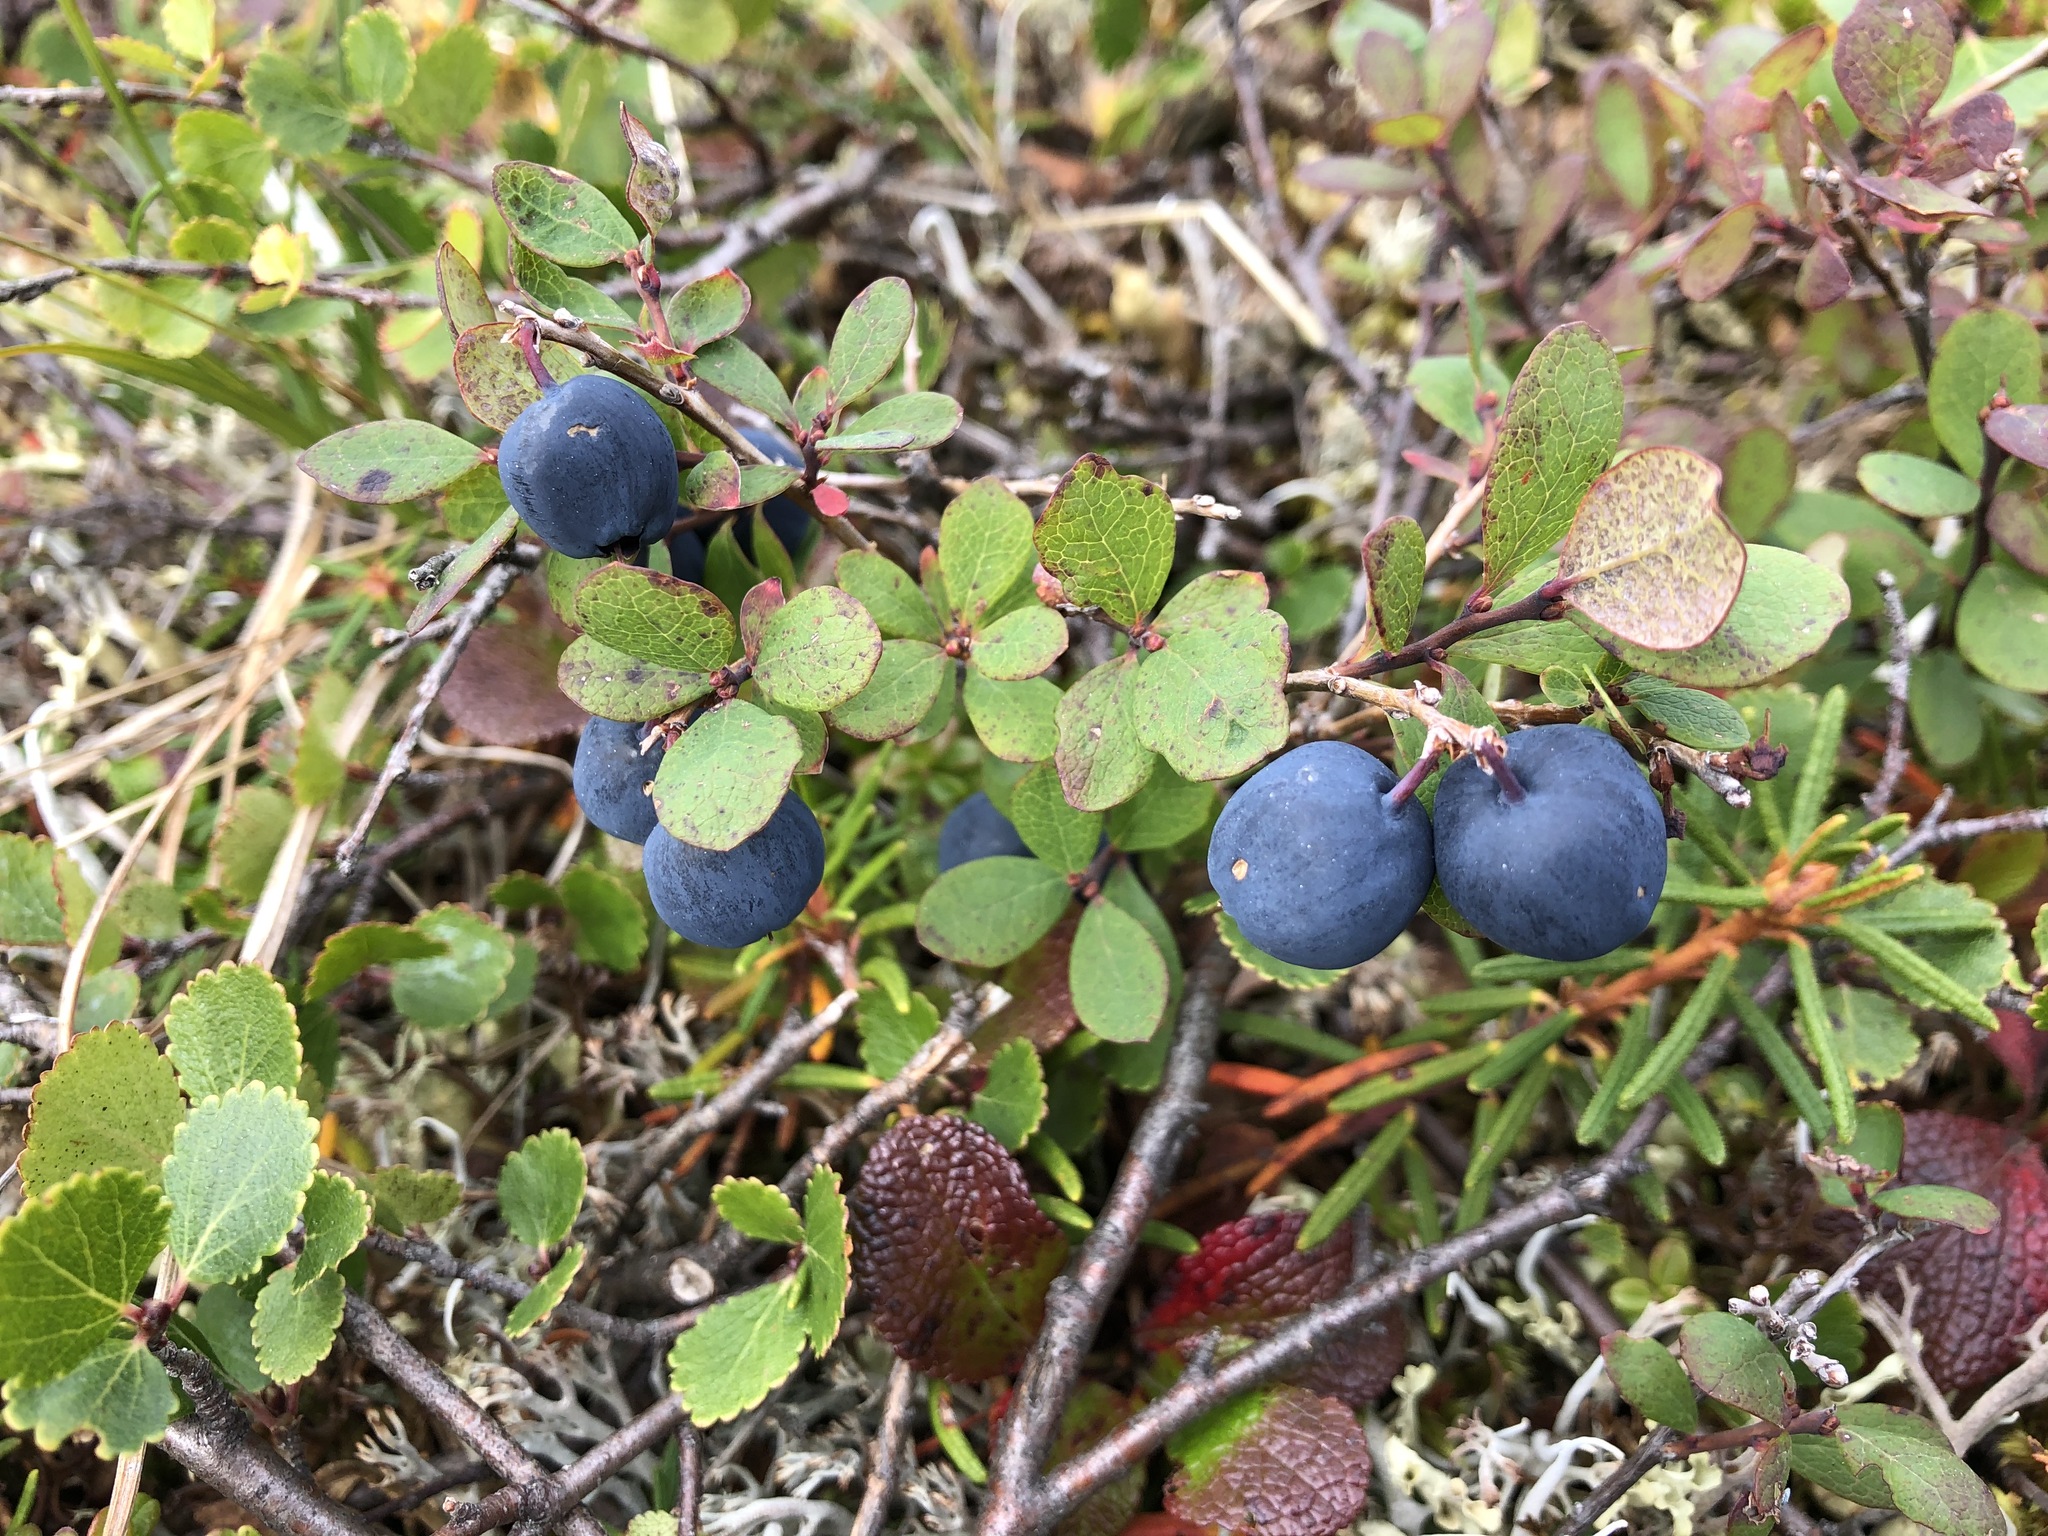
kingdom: Plantae
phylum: Tracheophyta
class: Magnoliopsida
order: Ericales
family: Ericaceae
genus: Vaccinium
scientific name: Vaccinium uliginosum
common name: Bog bilberry
